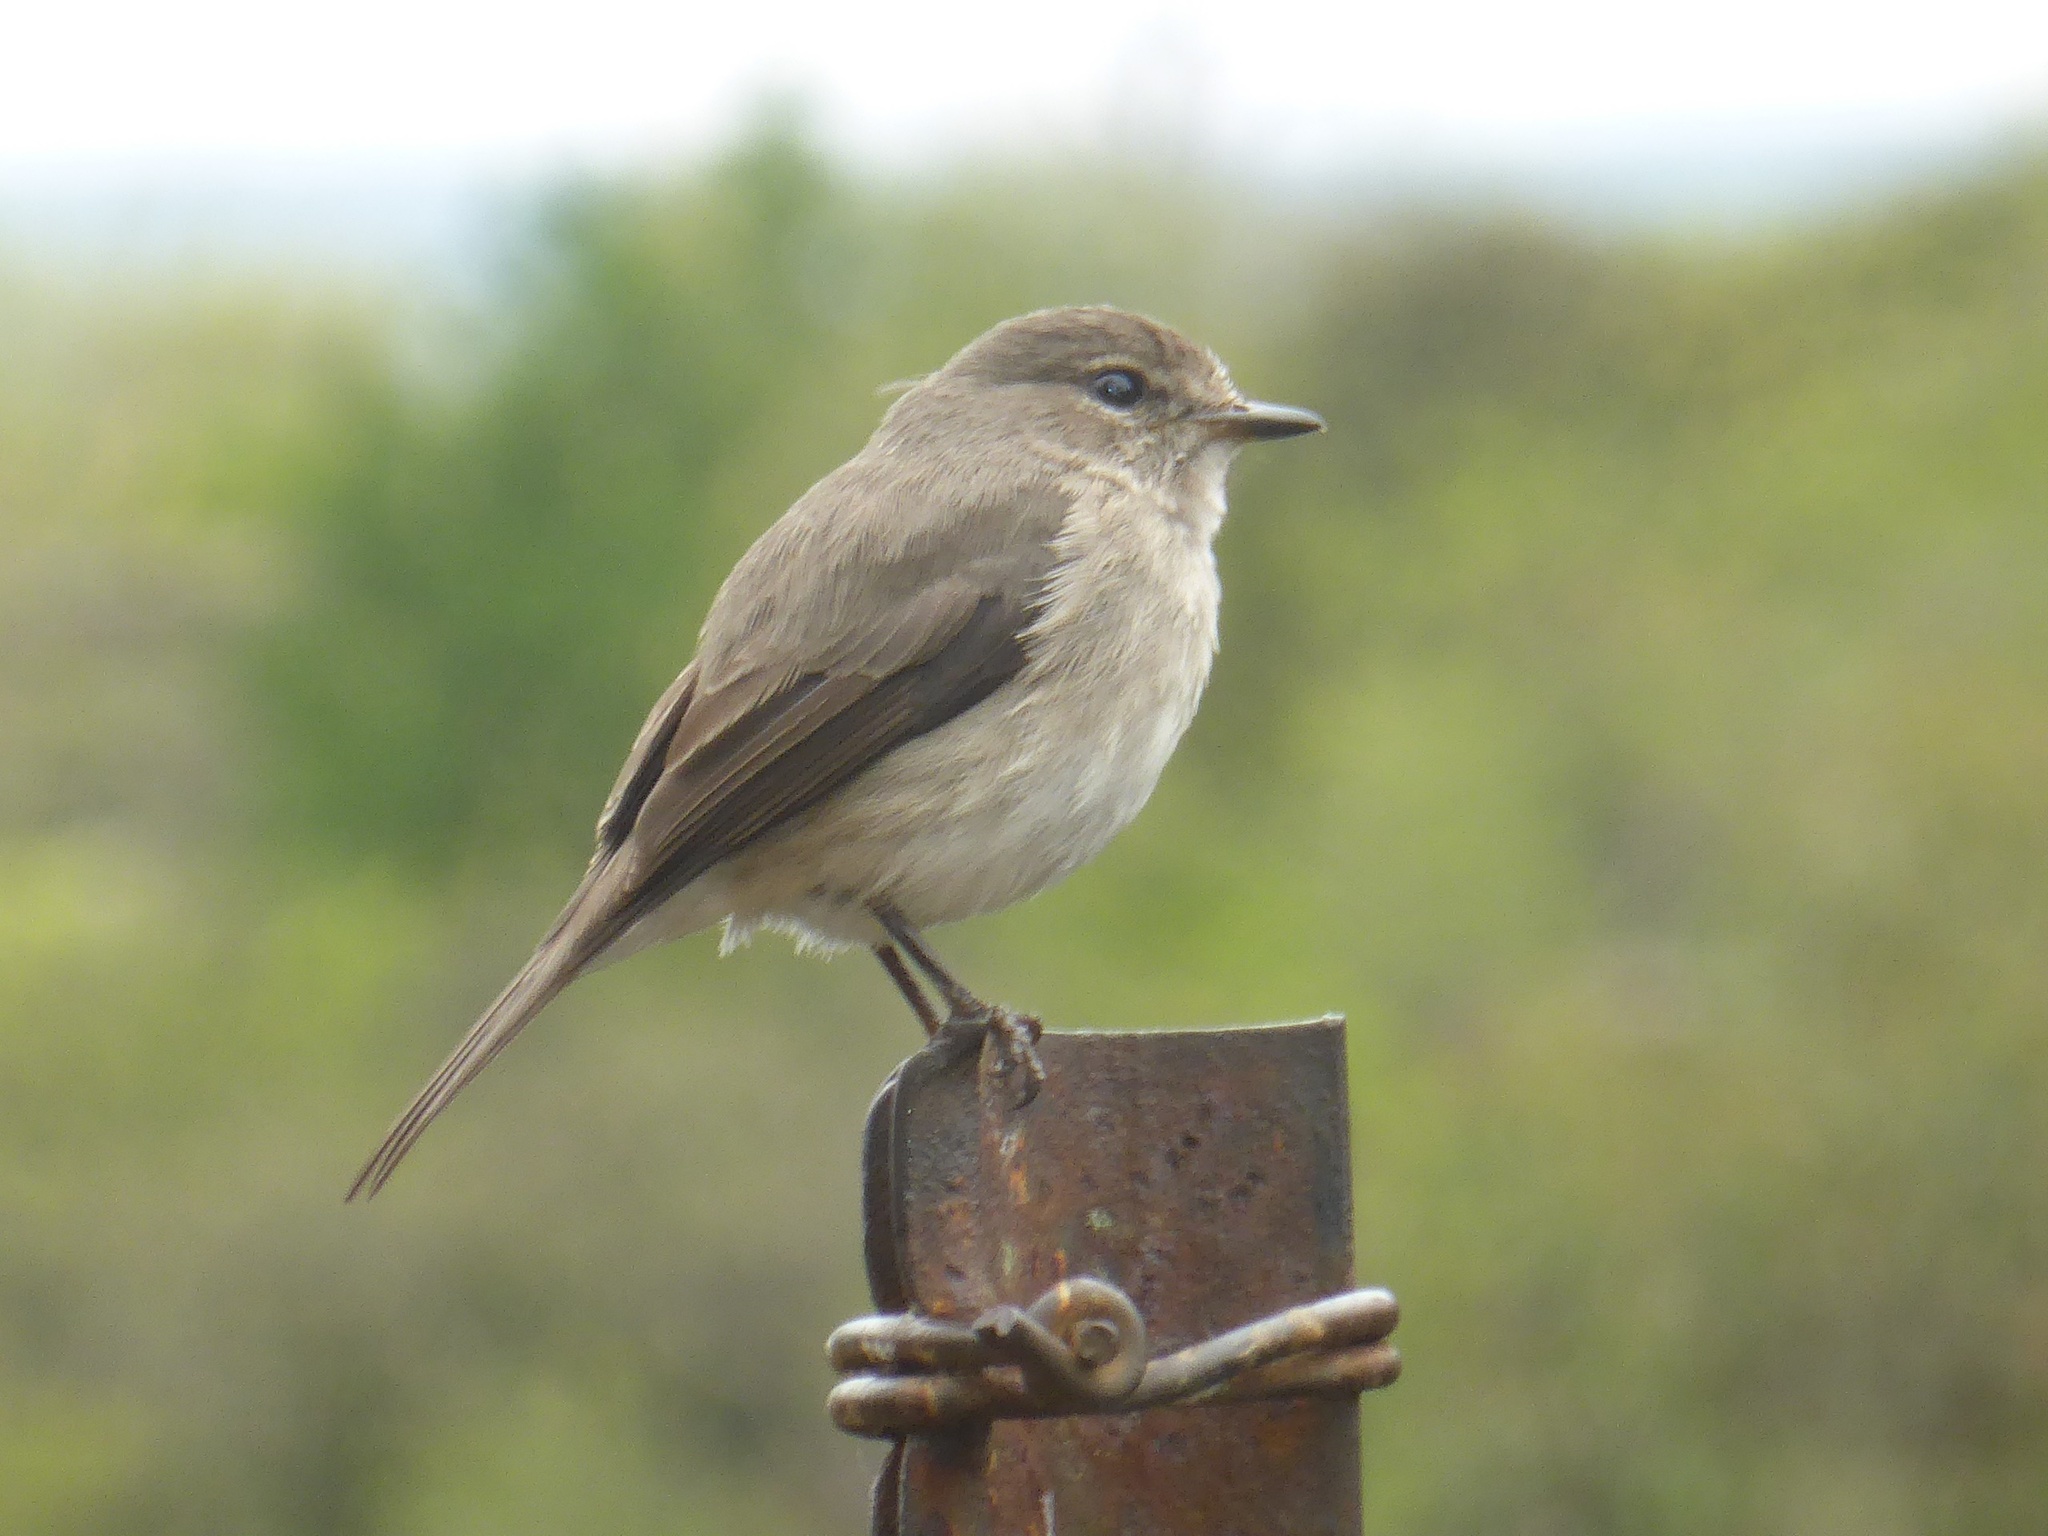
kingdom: Animalia
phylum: Chordata
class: Aves
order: Passeriformes
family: Muscicapidae
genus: Muscicapa
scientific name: Muscicapa adusta
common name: African dusky flycatcher
